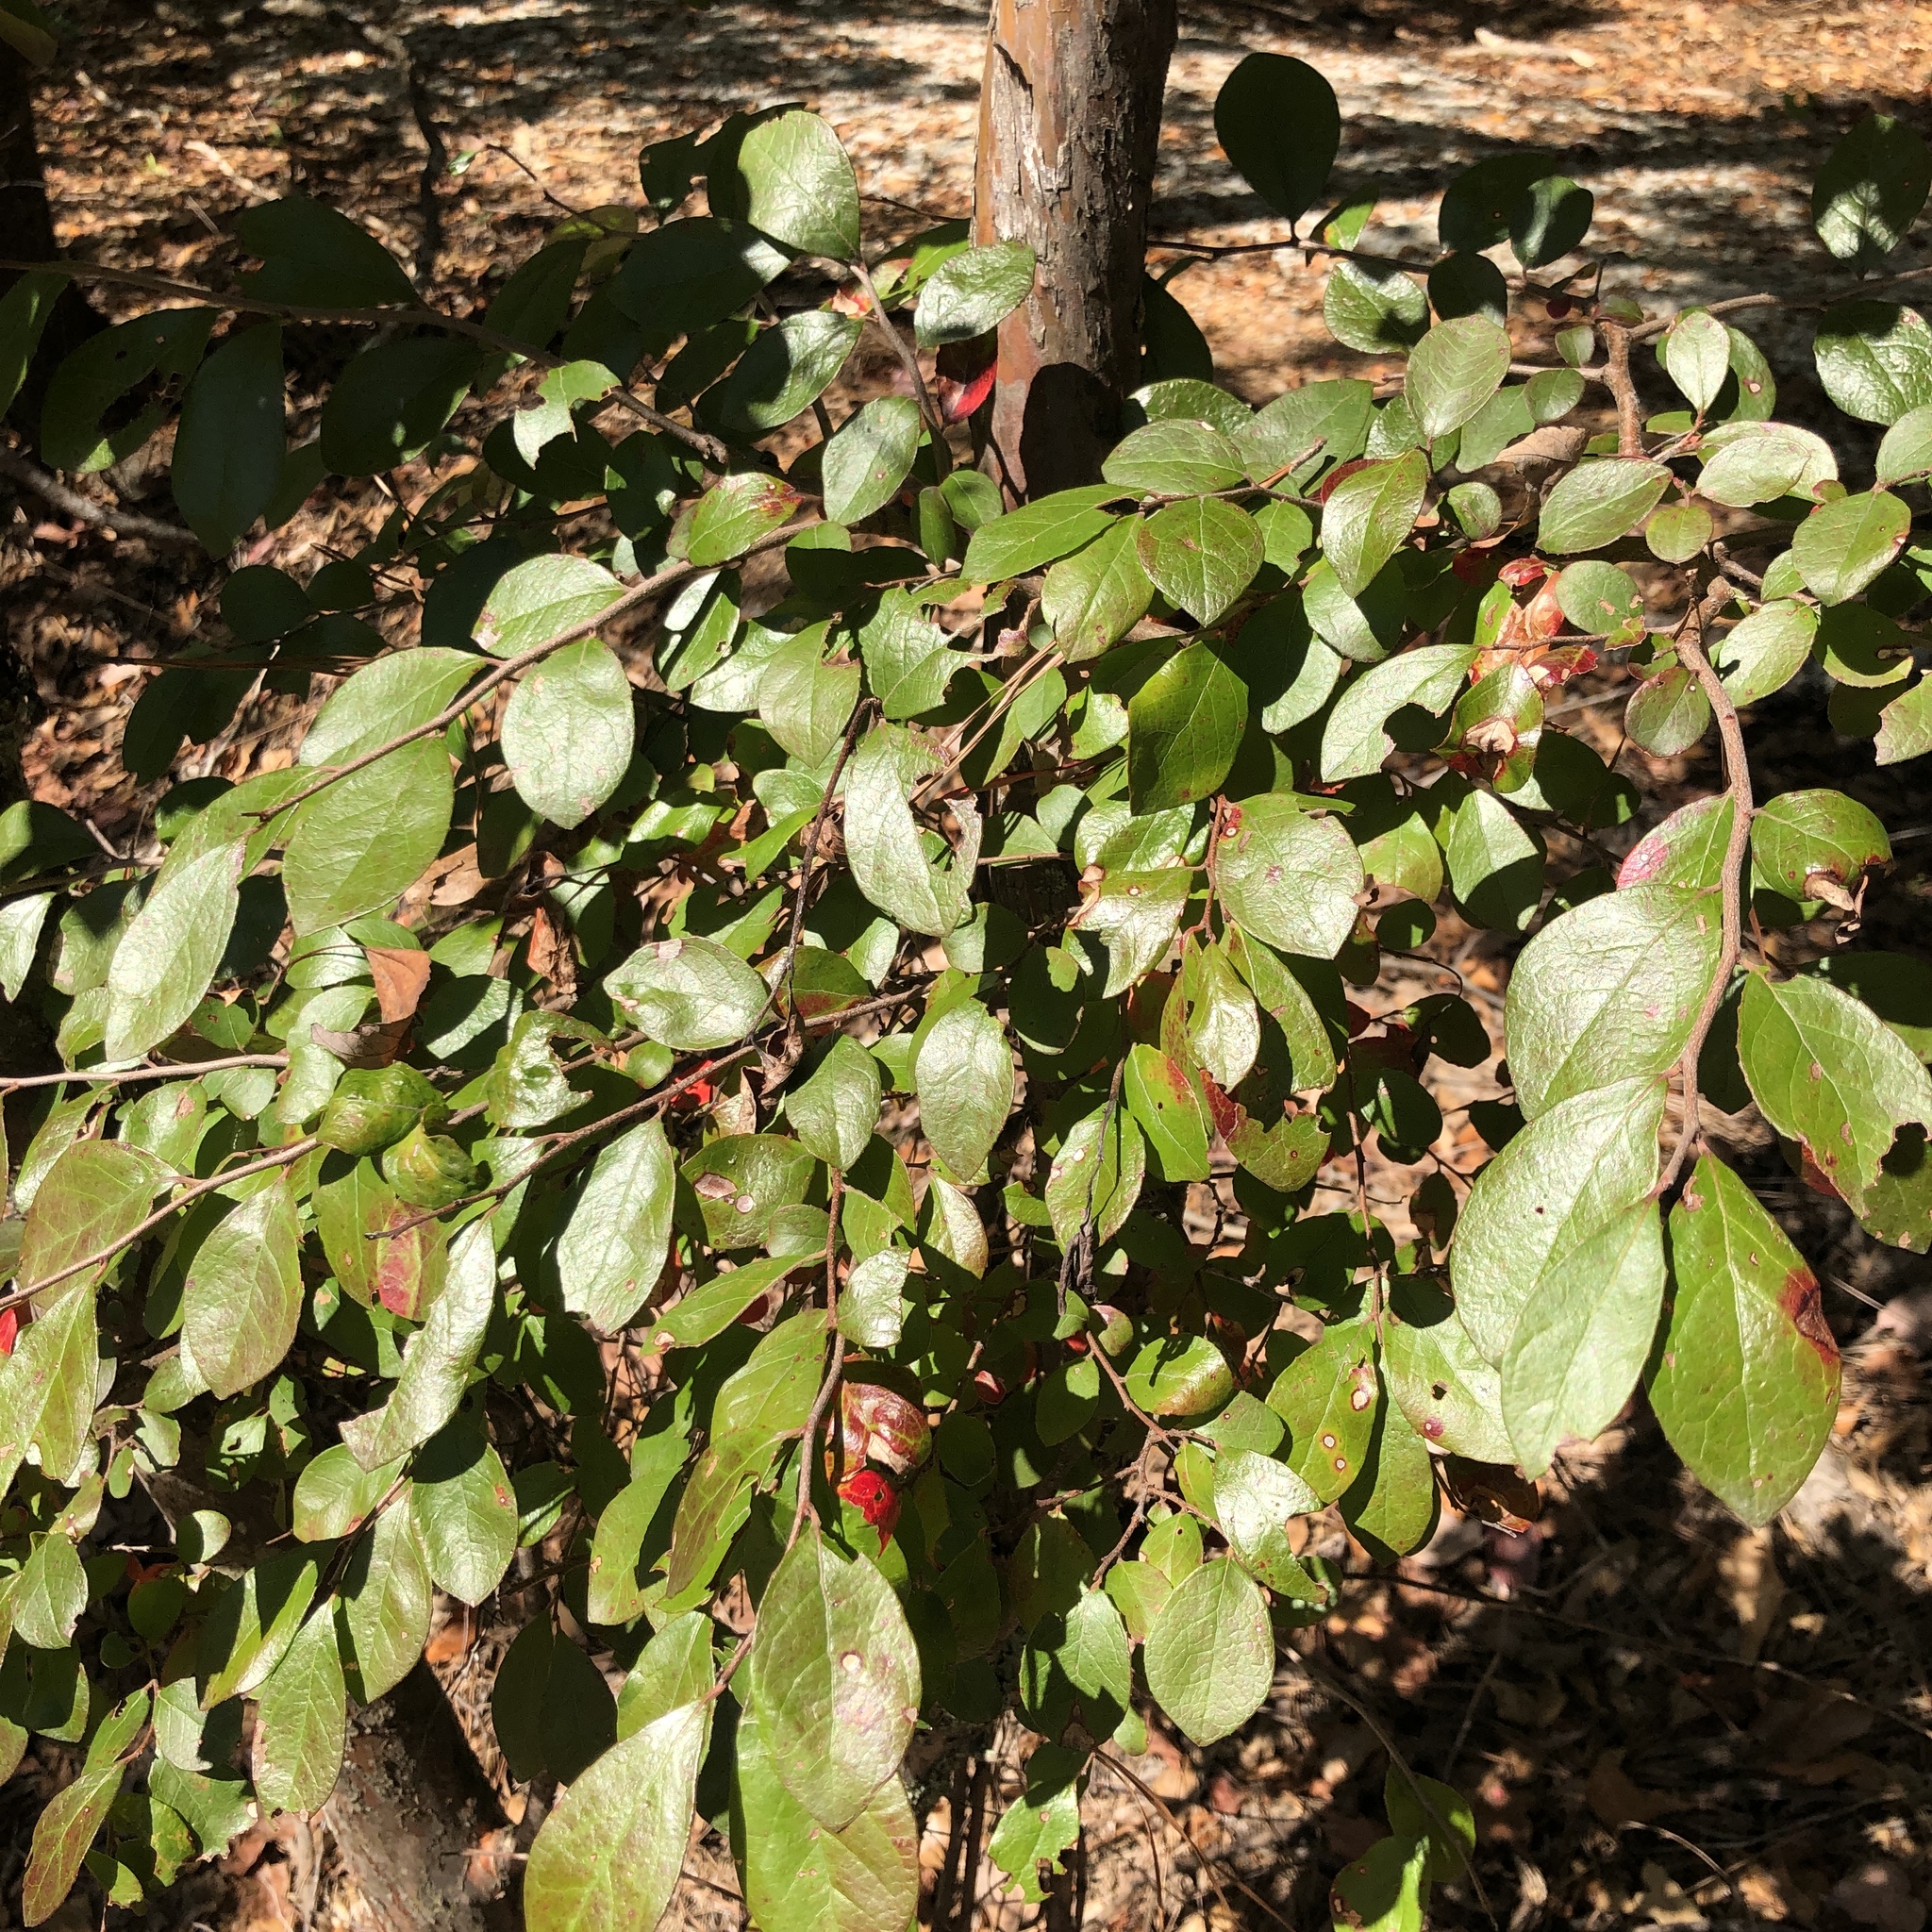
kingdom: Plantae
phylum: Tracheophyta
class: Magnoliopsida
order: Ericales
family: Ericaceae
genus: Vaccinium
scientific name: Vaccinium arboreum
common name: Farkleberry
